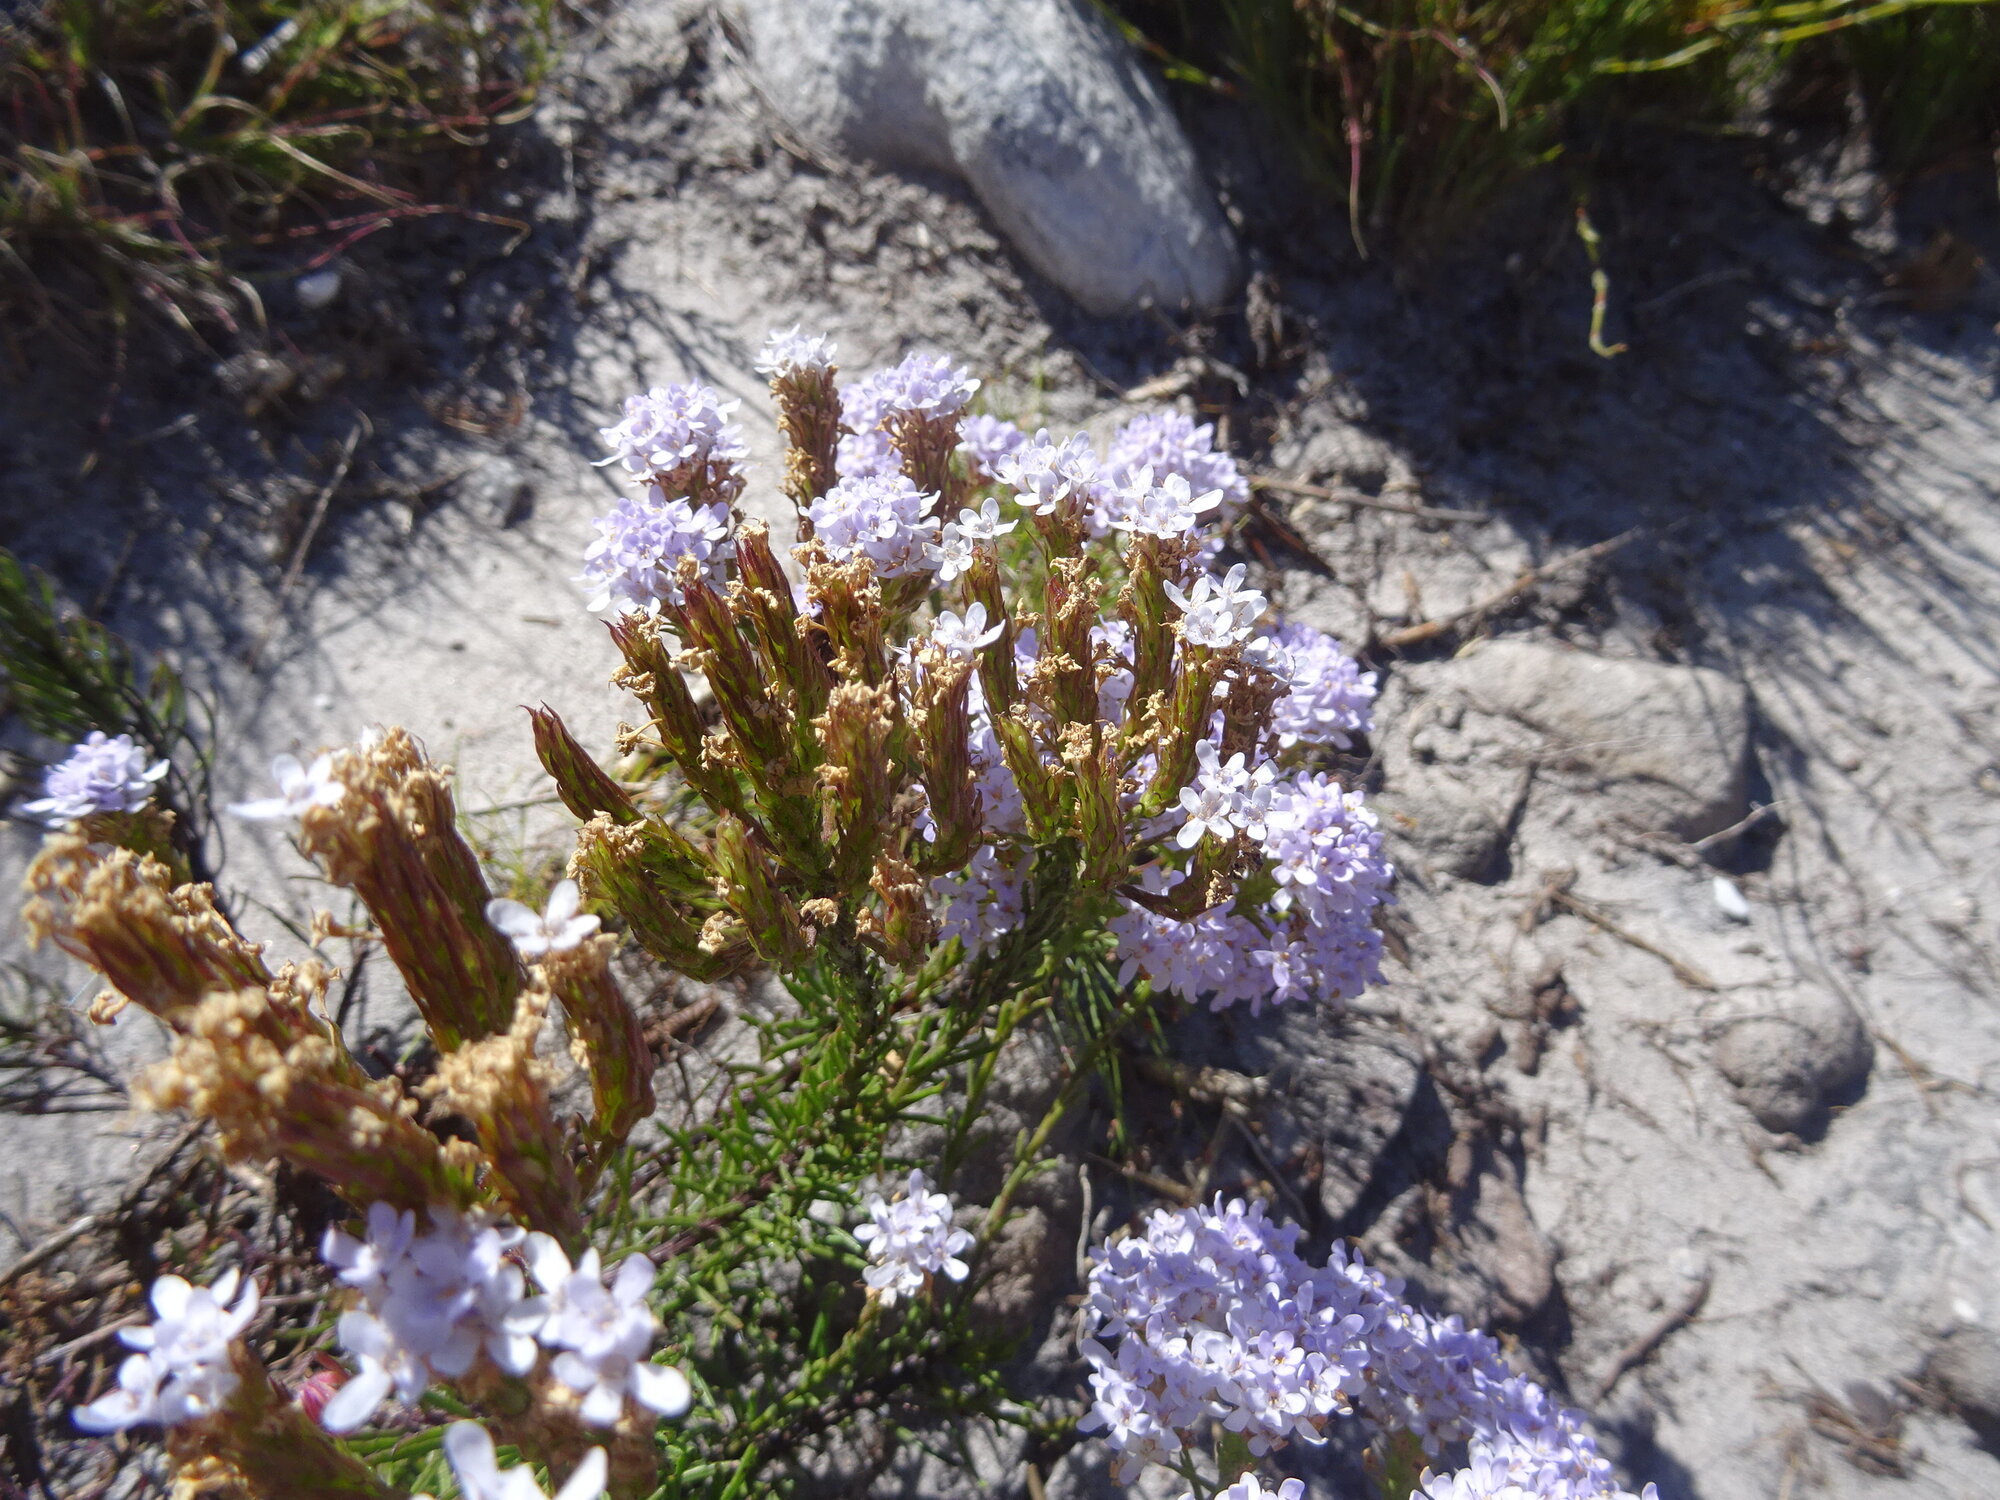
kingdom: Plantae
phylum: Tracheophyta
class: Magnoliopsida
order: Lamiales
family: Scrophulariaceae
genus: Pseudoselago
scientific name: Pseudoselago spuria
